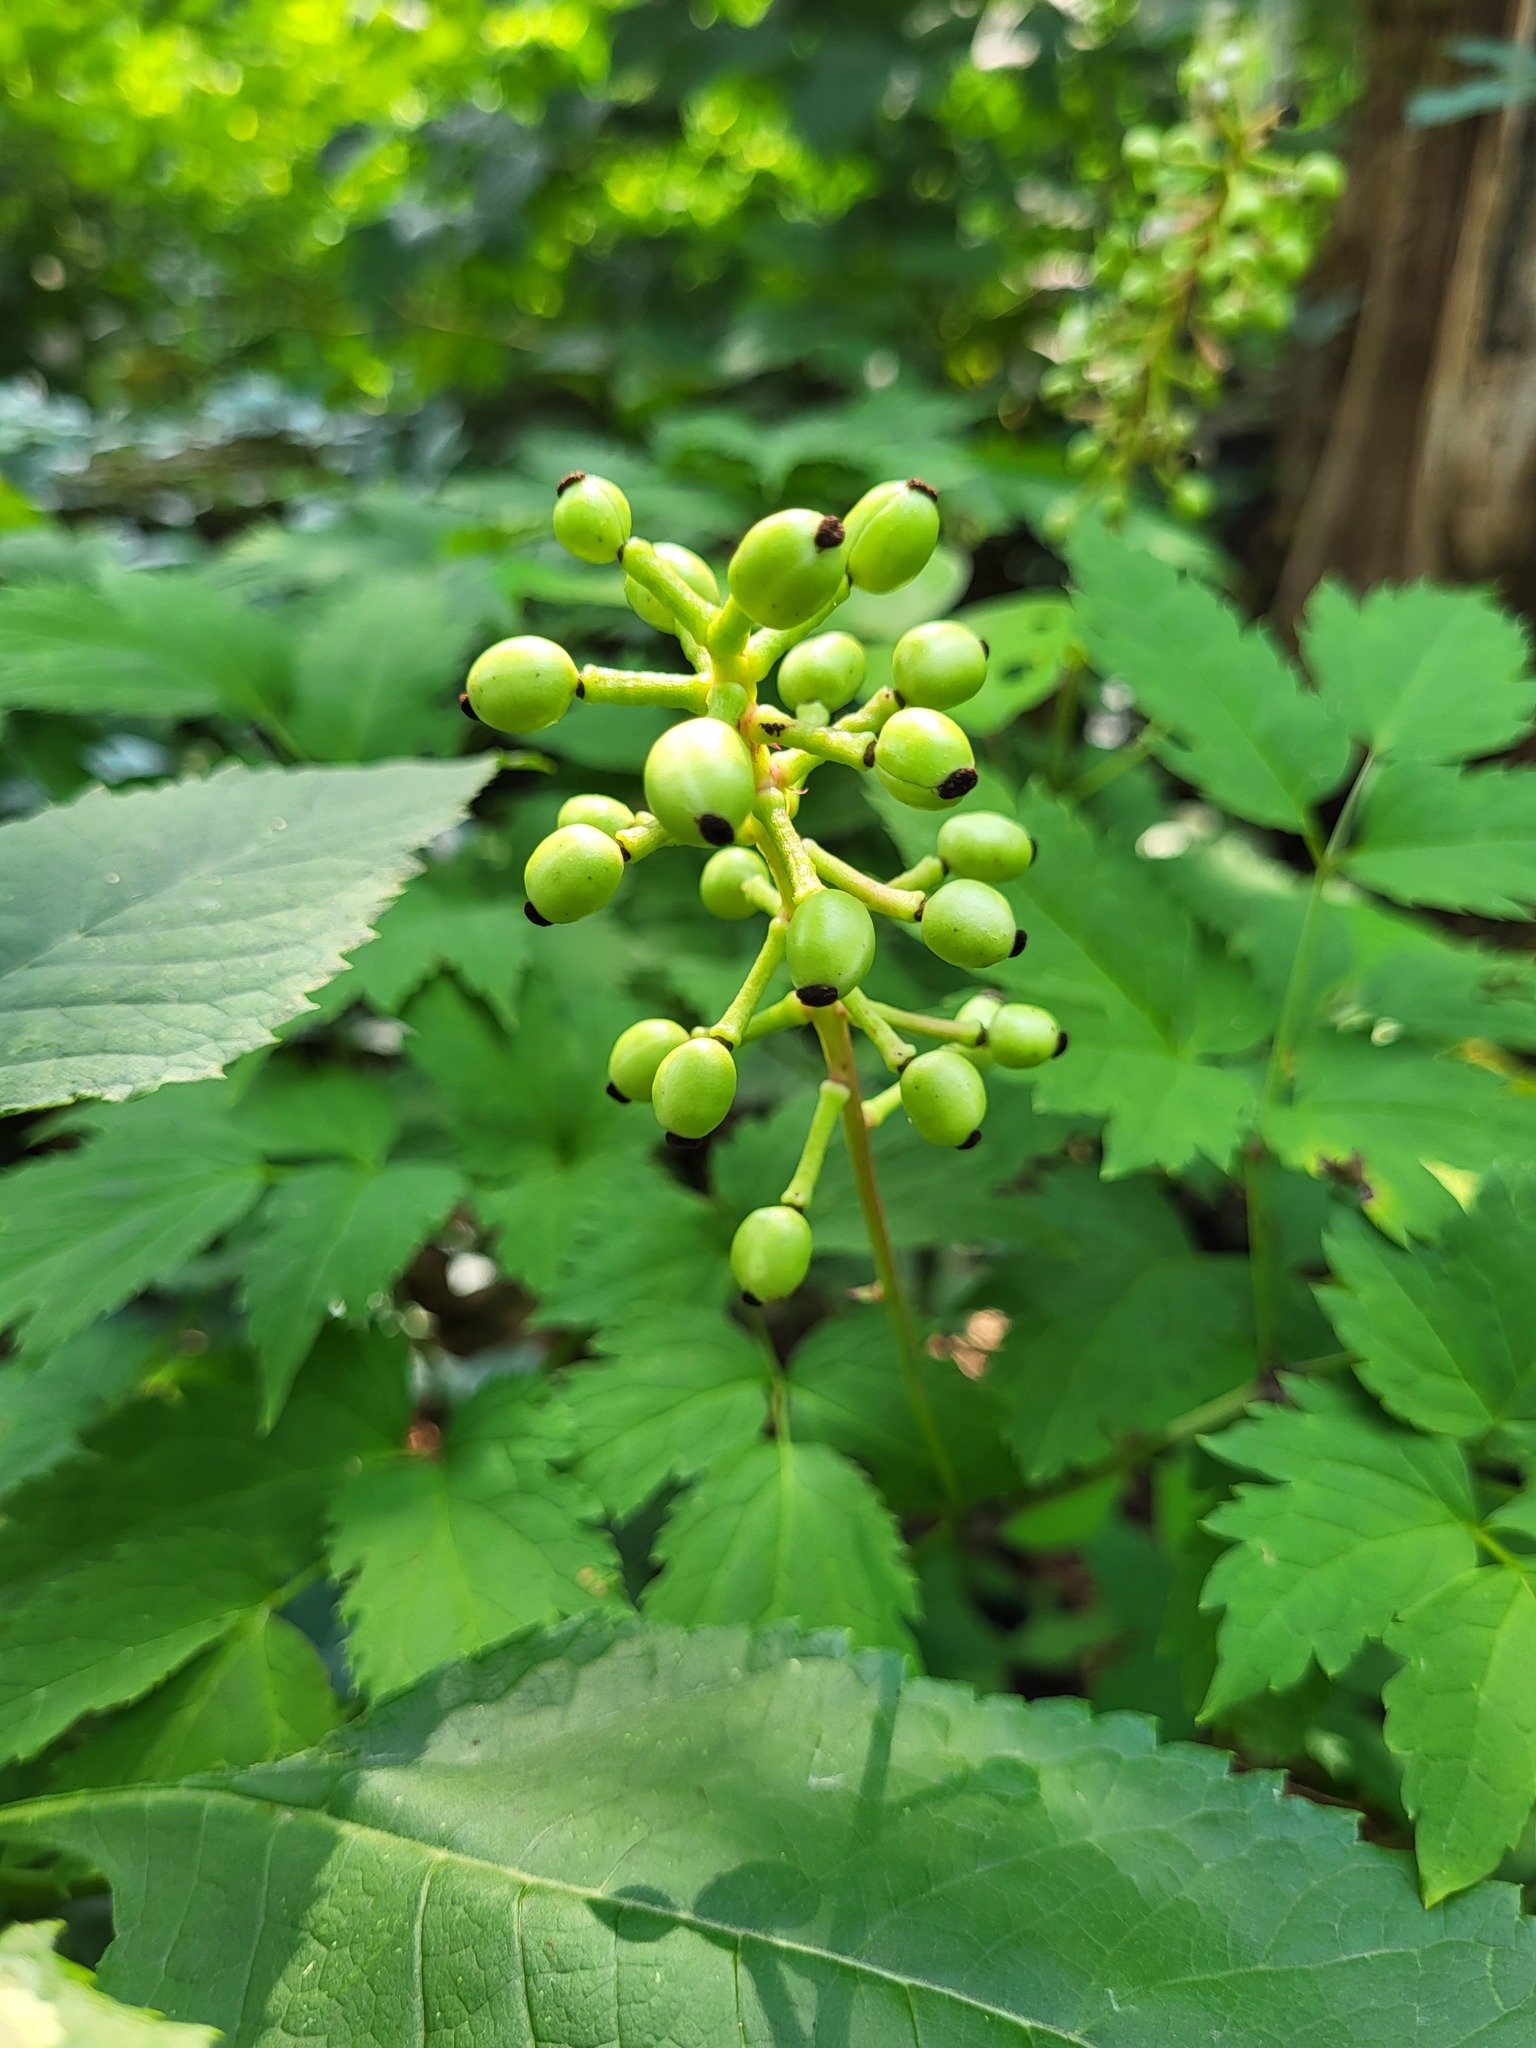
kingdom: Plantae
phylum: Tracheophyta
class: Magnoliopsida
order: Ranunculales
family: Ranunculaceae
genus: Actaea
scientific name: Actaea pachypoda
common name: Doll's-eyes
